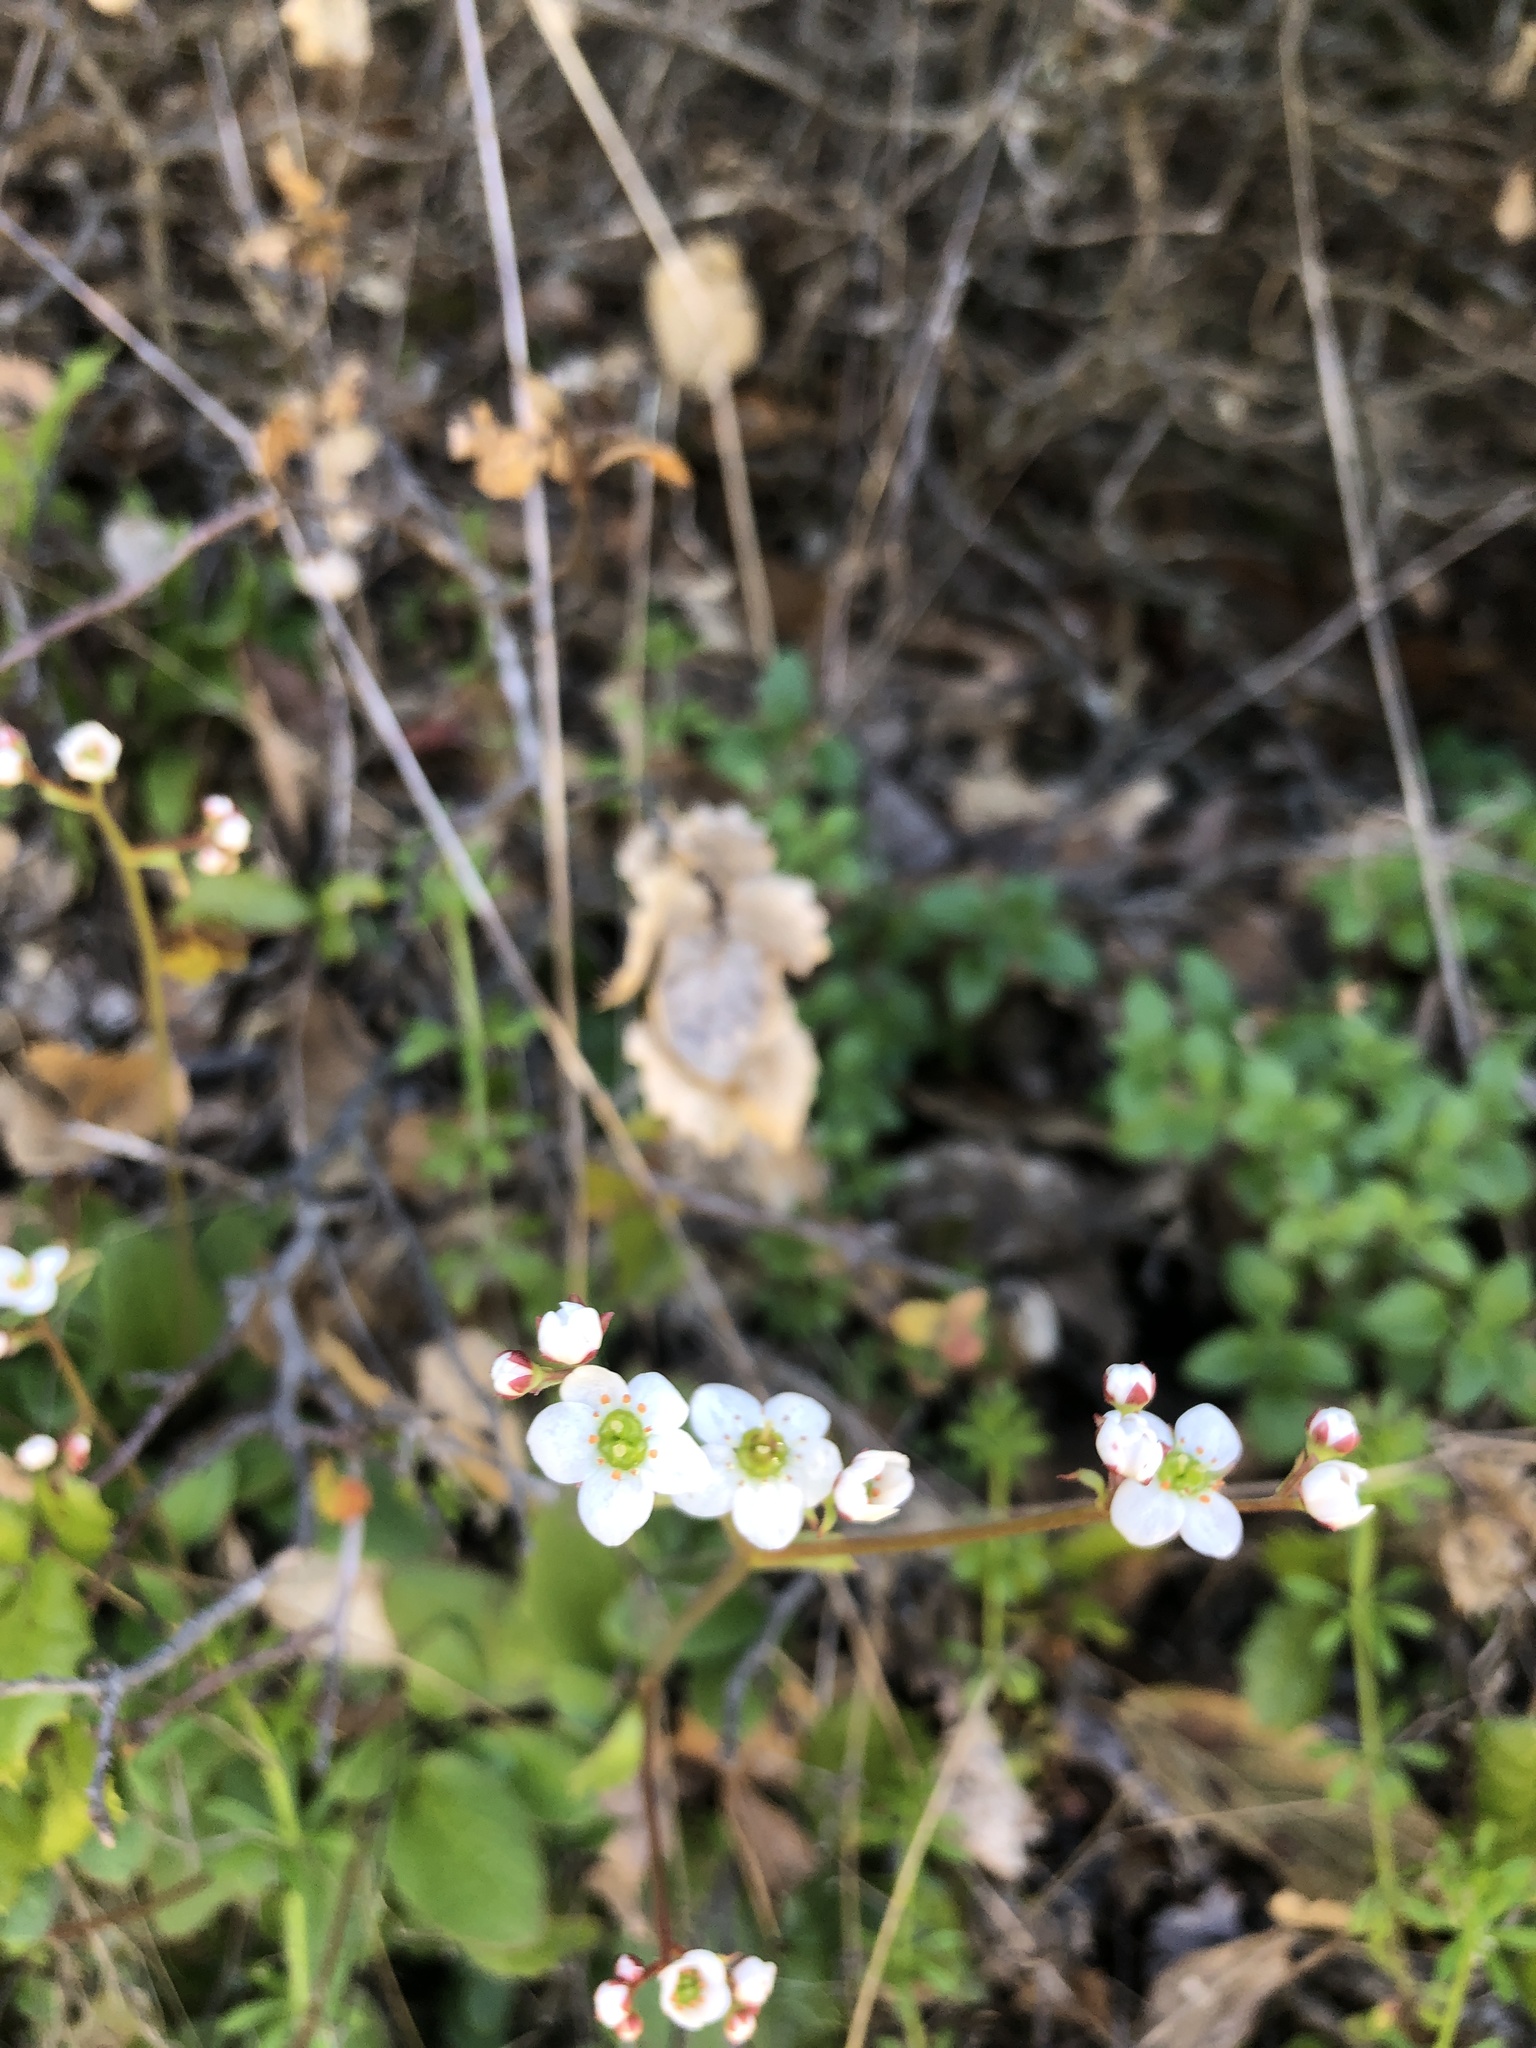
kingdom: Plantae
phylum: Tracheophyta
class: Magnoliopsida
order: Saxifragales
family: Saxifragaceae
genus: Micranthes
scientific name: Micranthes californica
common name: California saxifrage
